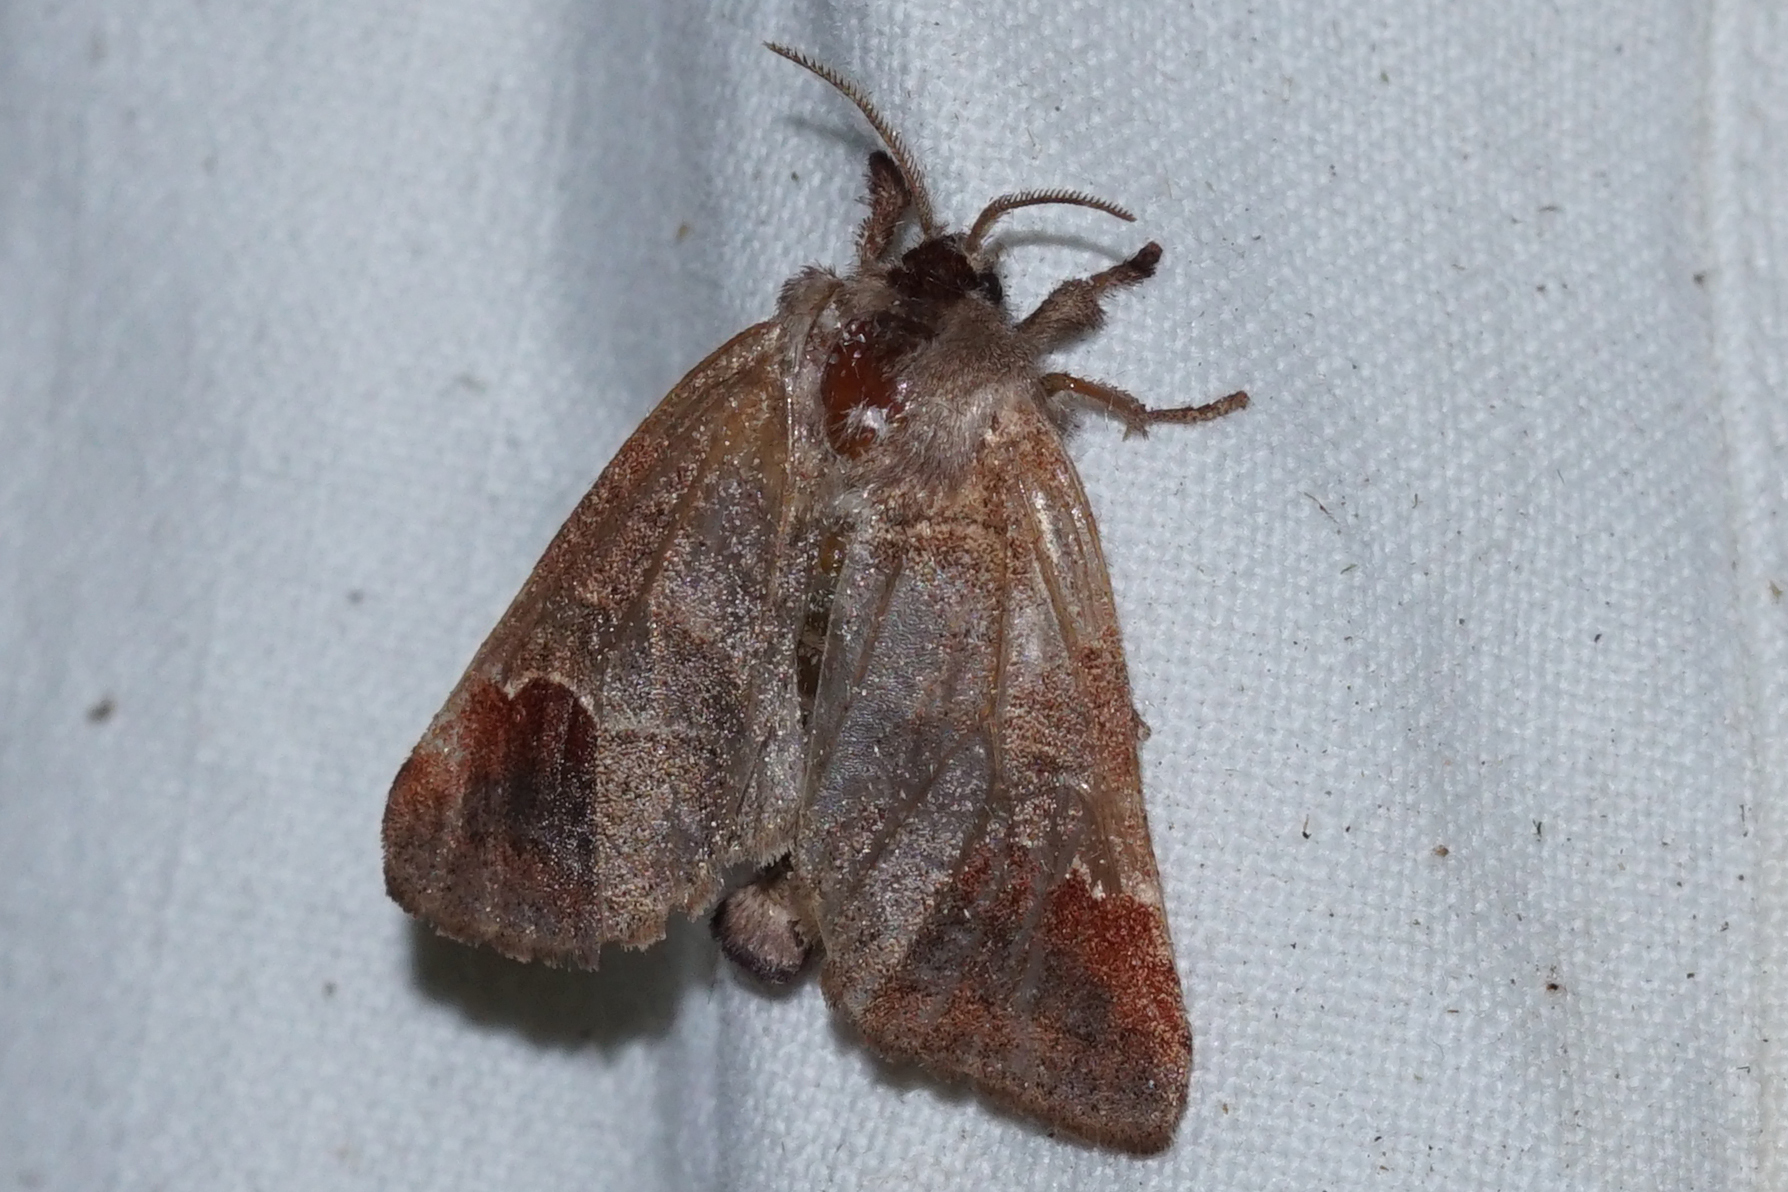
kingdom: Animalia
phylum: Arthropoda
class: Insecta
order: Lepidoptera
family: Notodontidae
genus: Clostera
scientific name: Clostera curtula
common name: Chocolate-tip
